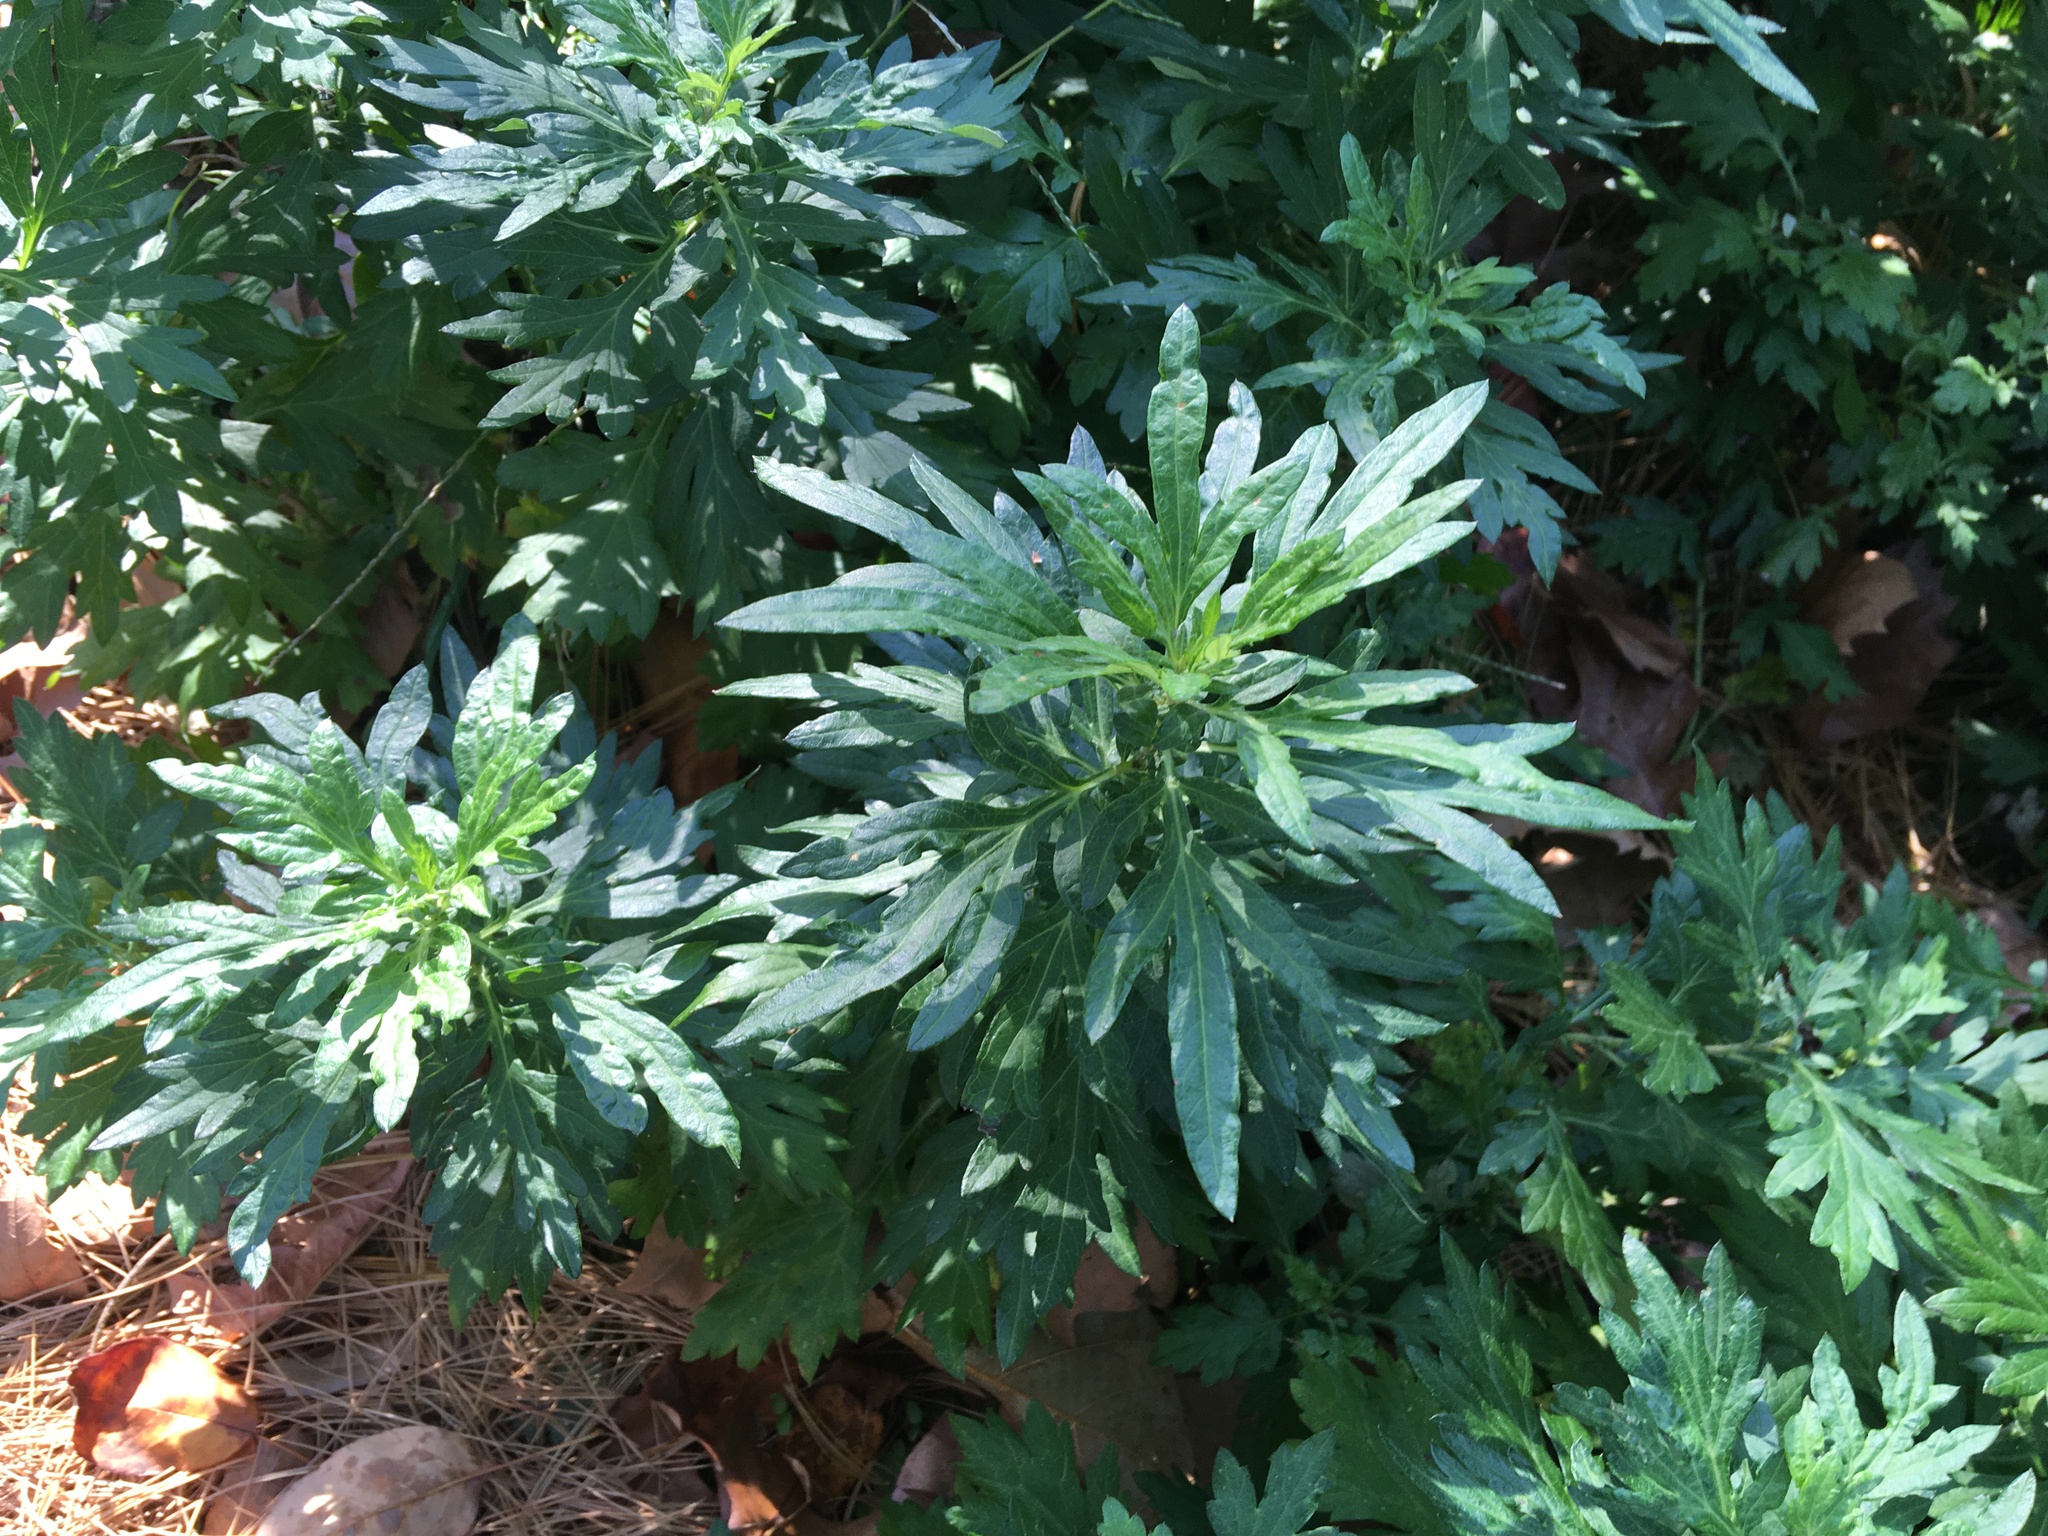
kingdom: Plantae
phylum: Tracheophyta
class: Magnoliopsida
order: Asterales
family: Asteraceae
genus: Artemisia
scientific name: Artemisia vulgaris
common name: Mugwort
